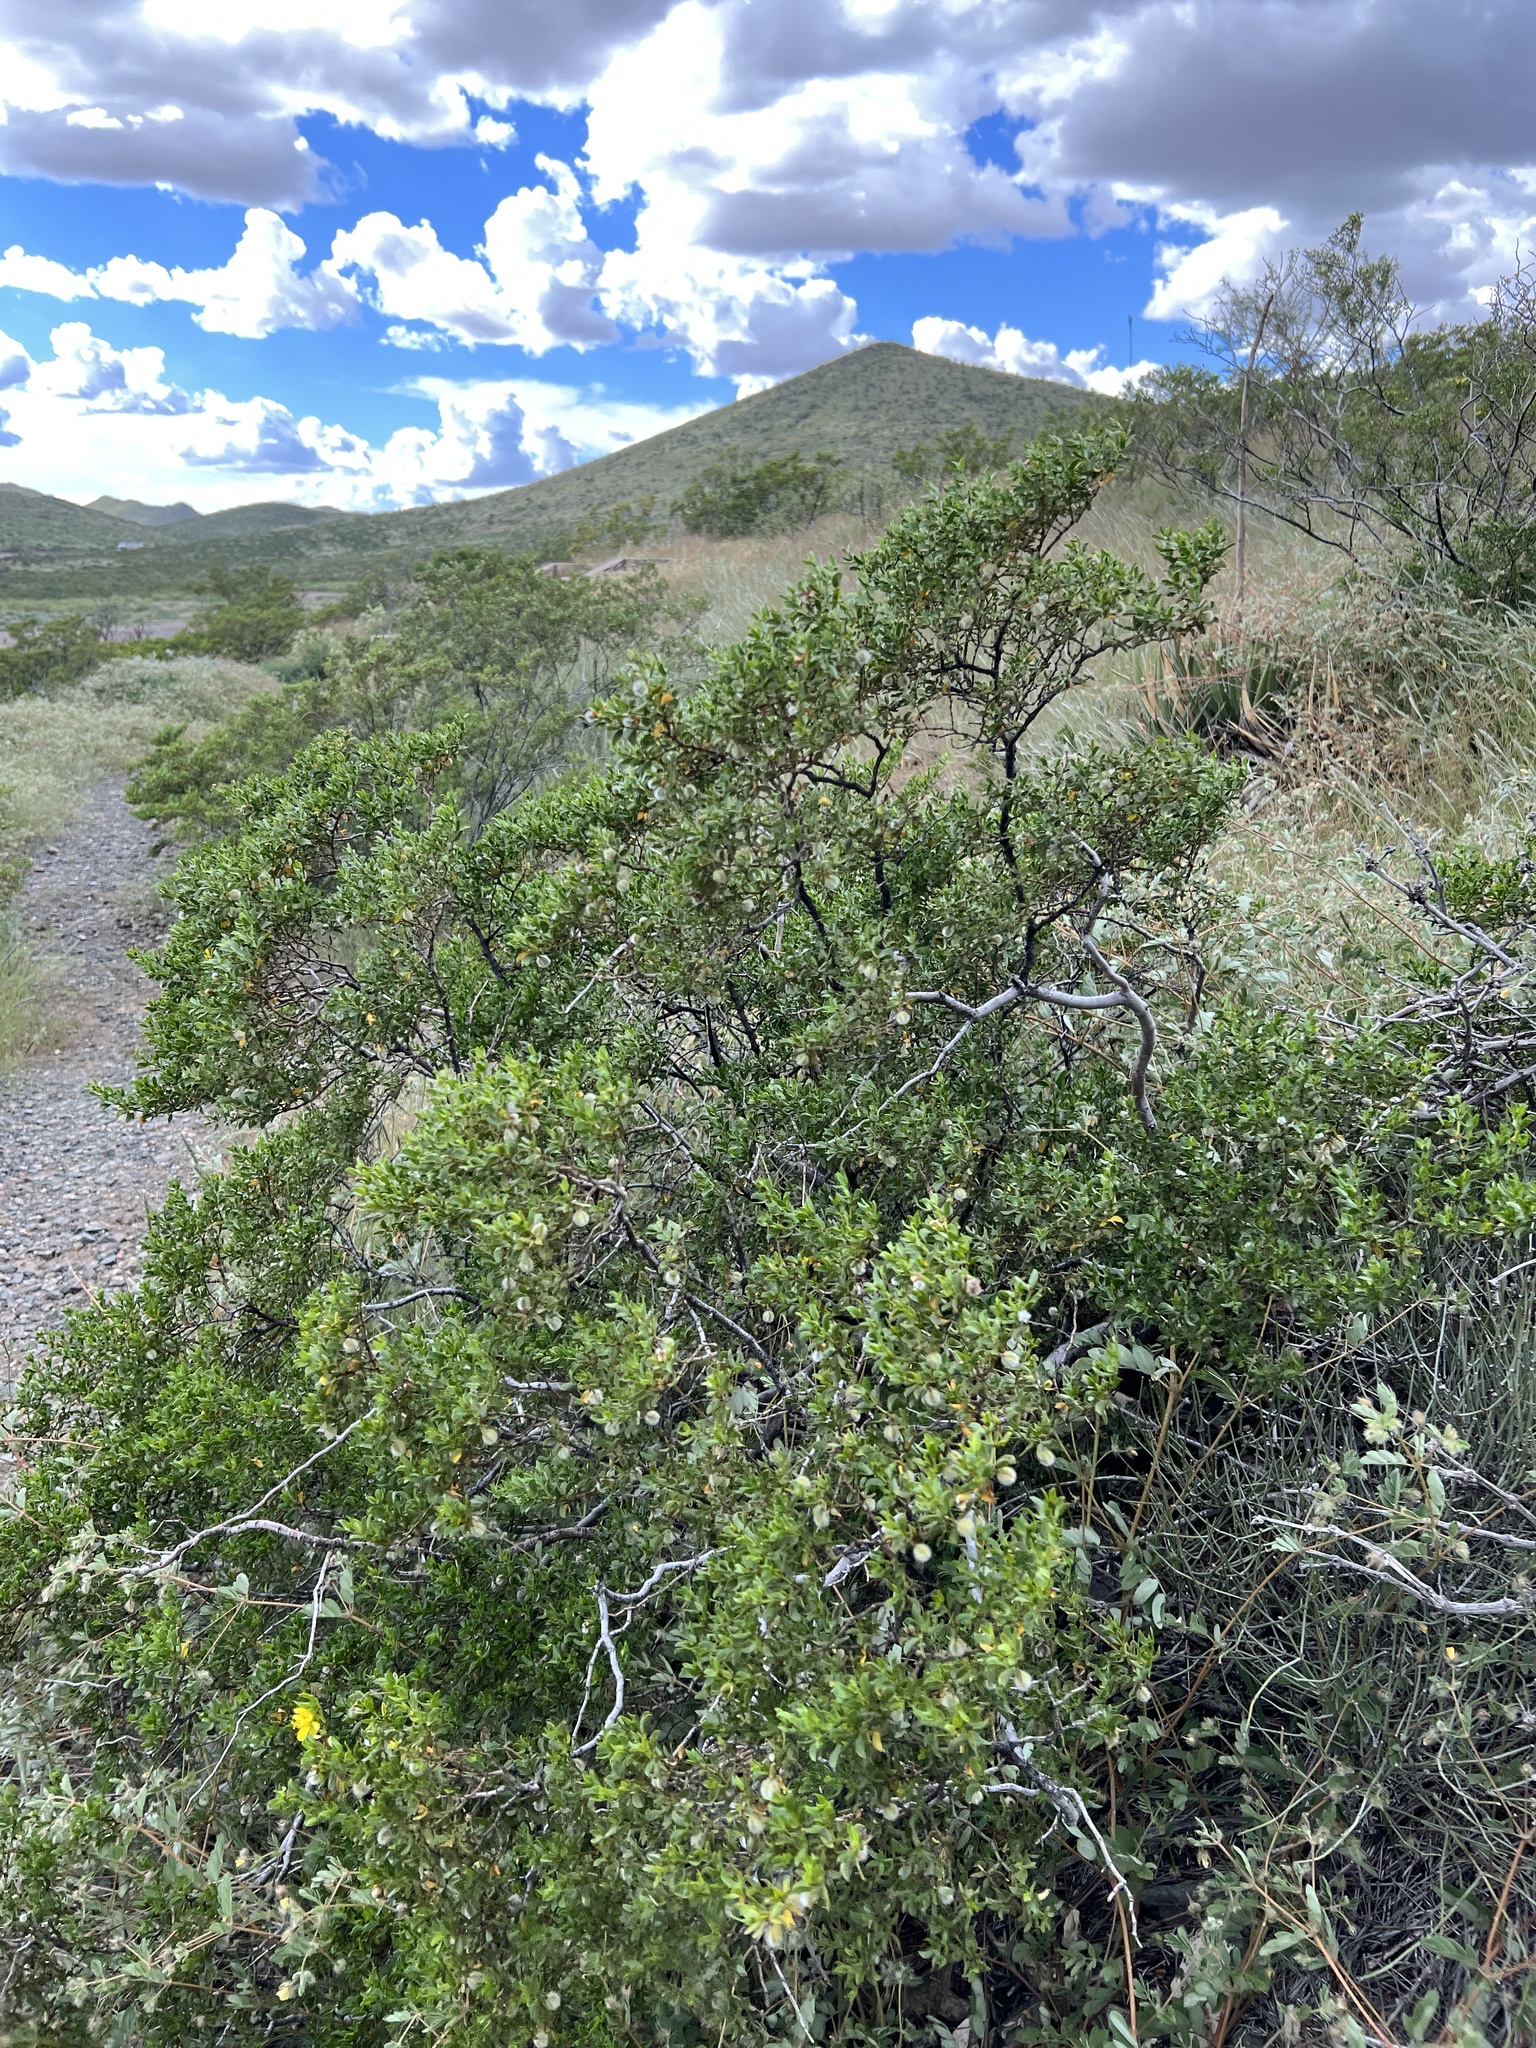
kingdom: Plantae
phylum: Tracheophyta
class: Magnoliopsida
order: Zygophyllales
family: Zygophyllaceae
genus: Larrea
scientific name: Larrea tridentata
